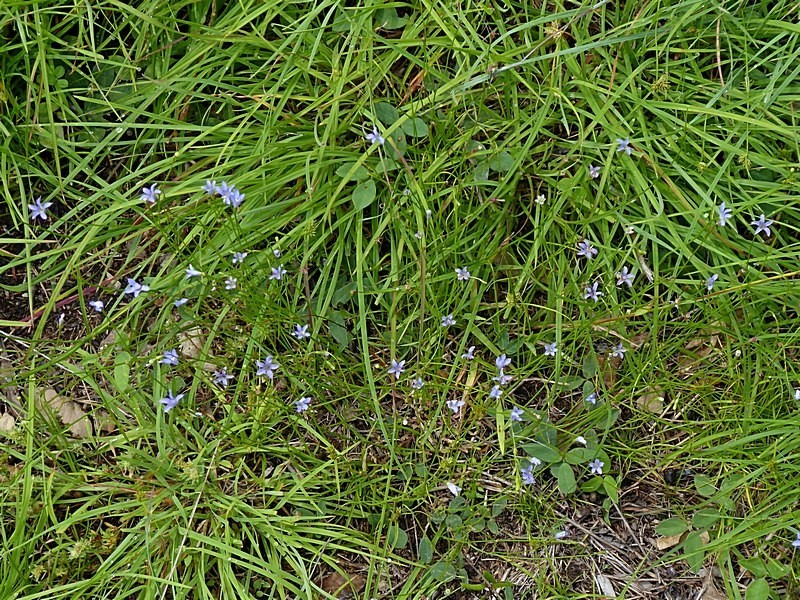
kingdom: Plantae
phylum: Tracheophyta
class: Magnoliopsida
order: Asterales
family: Campanulaceae
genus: Wahlenbergia
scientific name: Wahlenbergia gracilis
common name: Harebell
